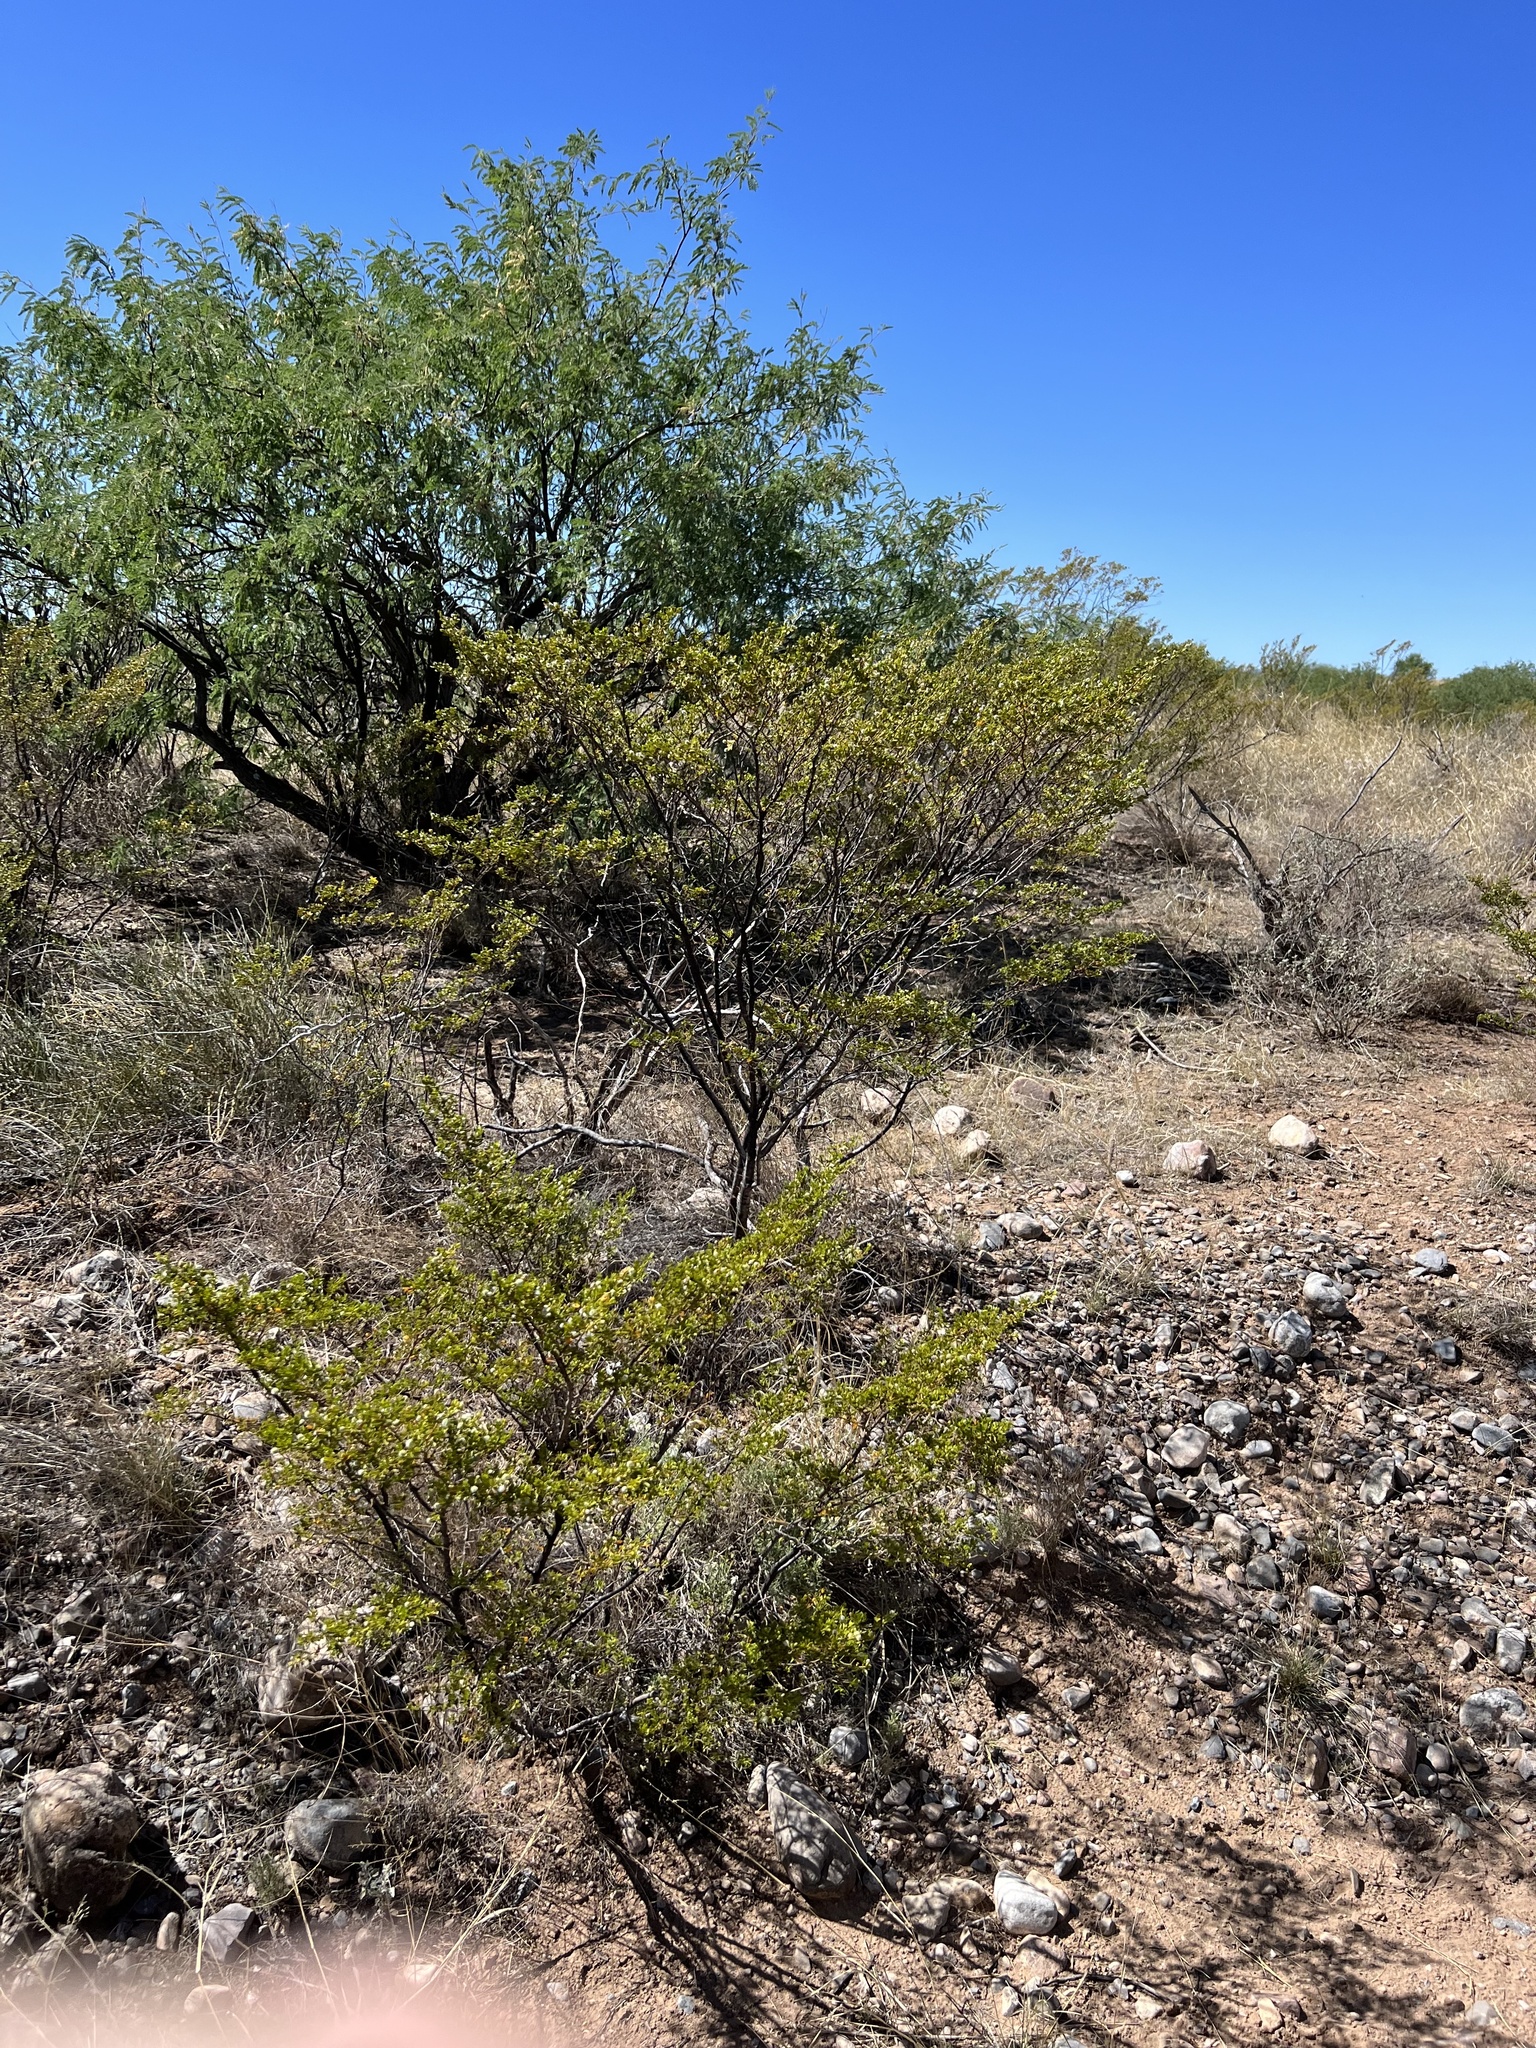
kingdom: Plantae
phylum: Tracheophyta
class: Magnoliopsida
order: Zygophyllales
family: Zygophyllaceae
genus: Larrea
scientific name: Larrea tridentata
